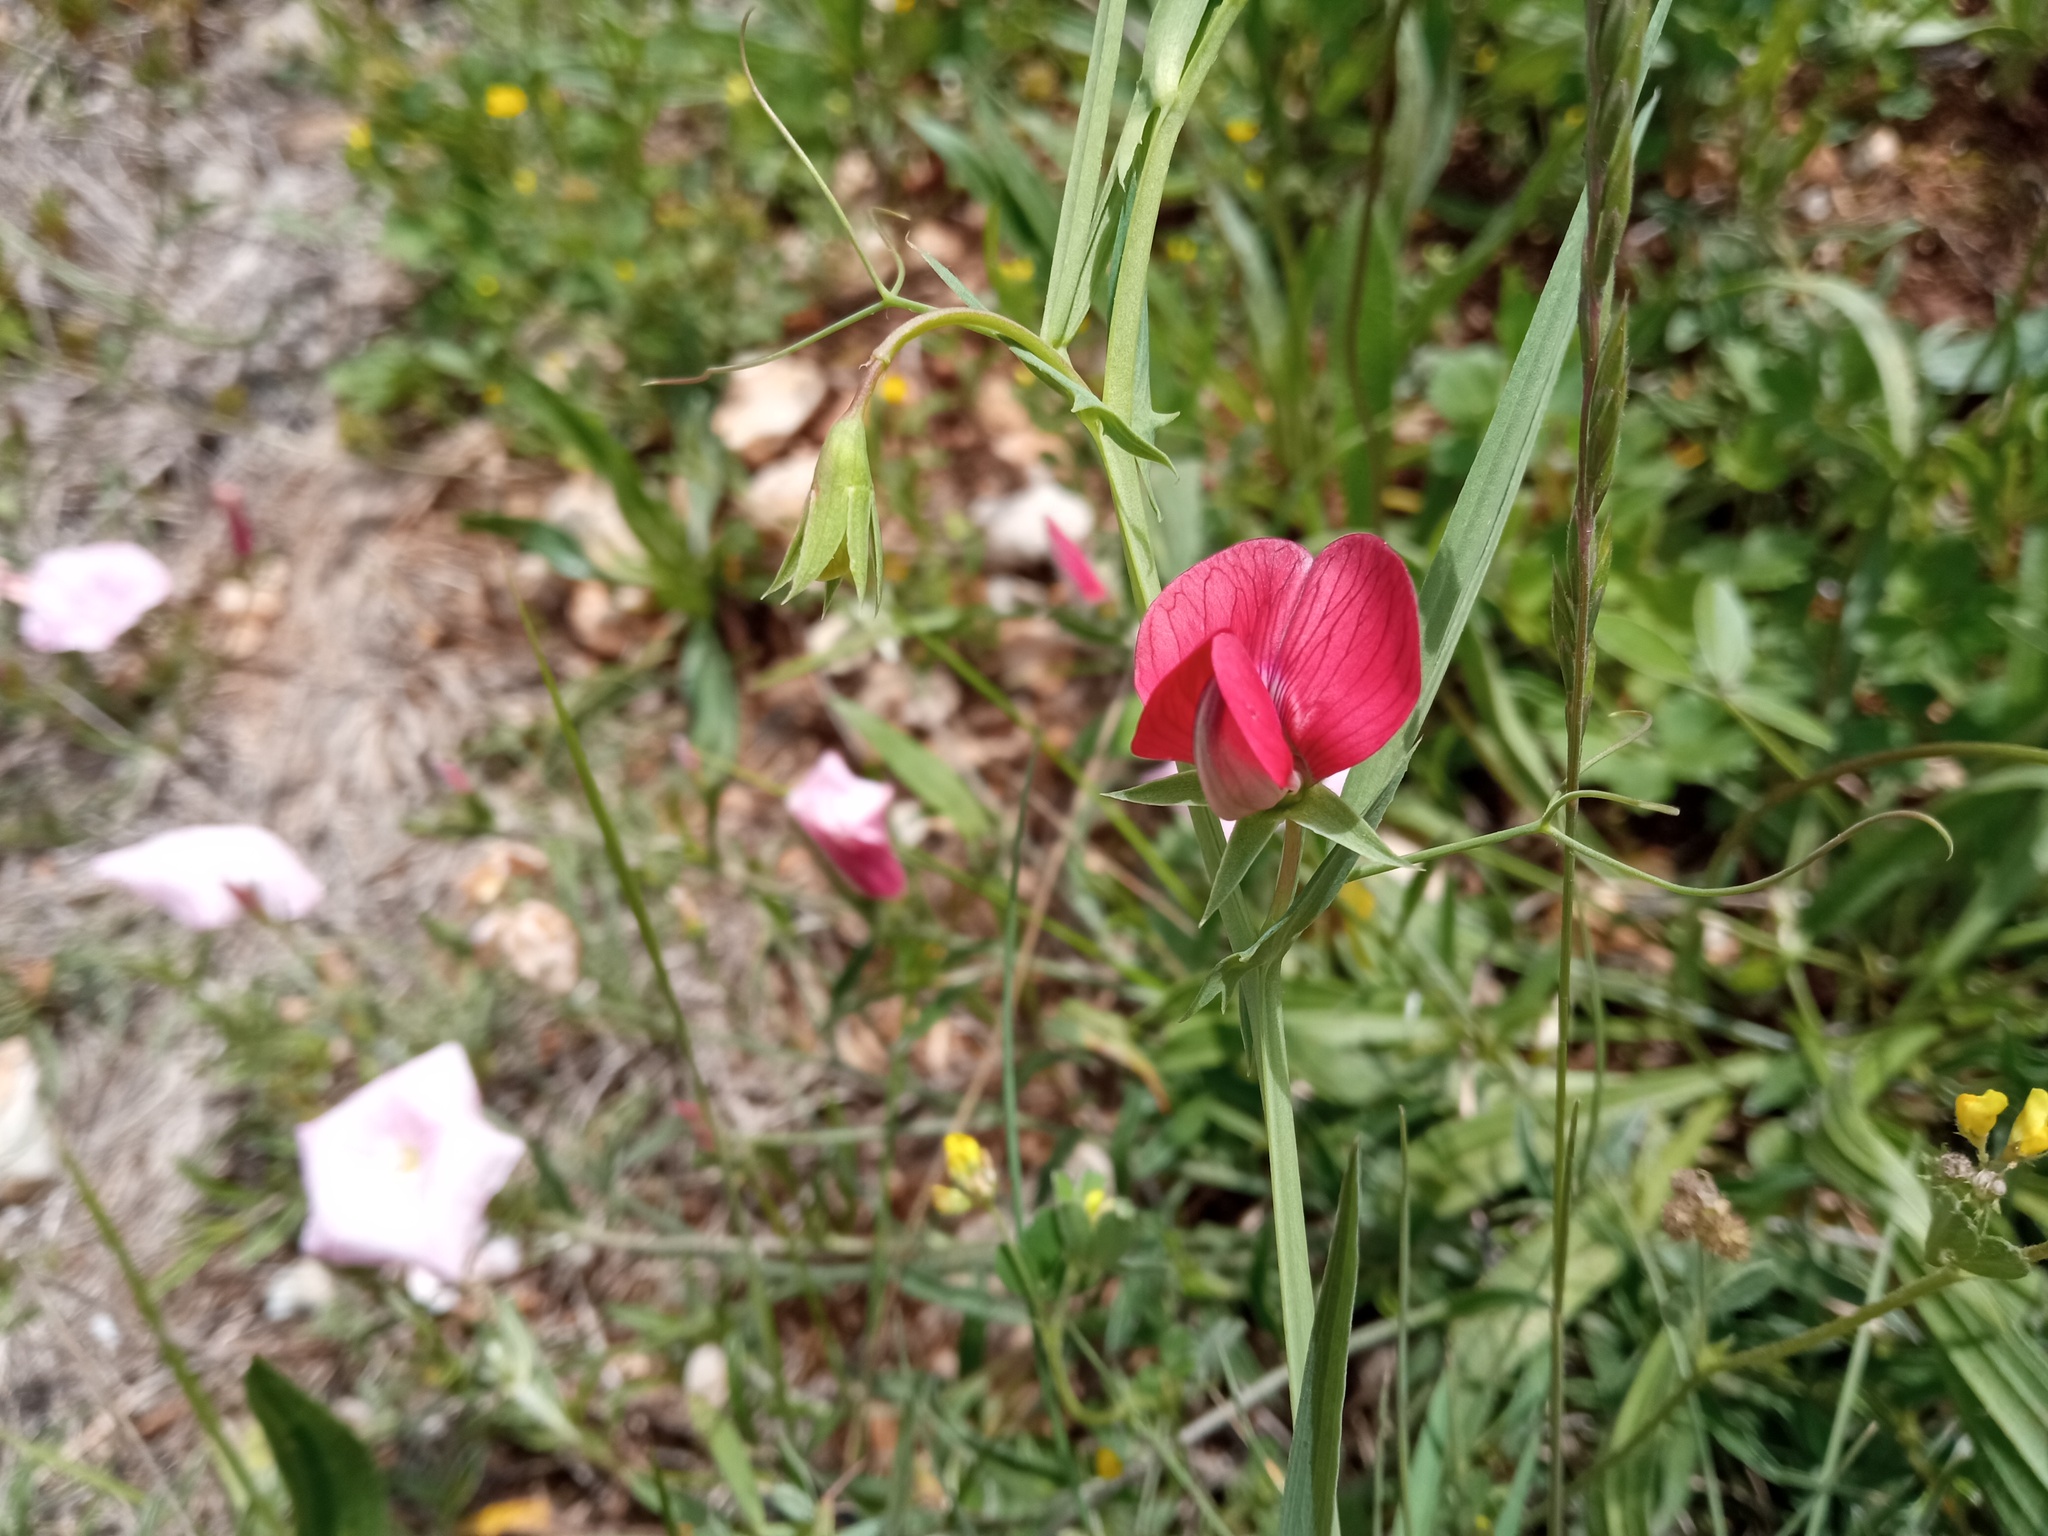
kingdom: Plantae
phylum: Tracheophyta
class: Magnoliopsida
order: Fabales
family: Fabaceae
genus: Lathyrus
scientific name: Lathyrus cicera
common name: Red vetchling
